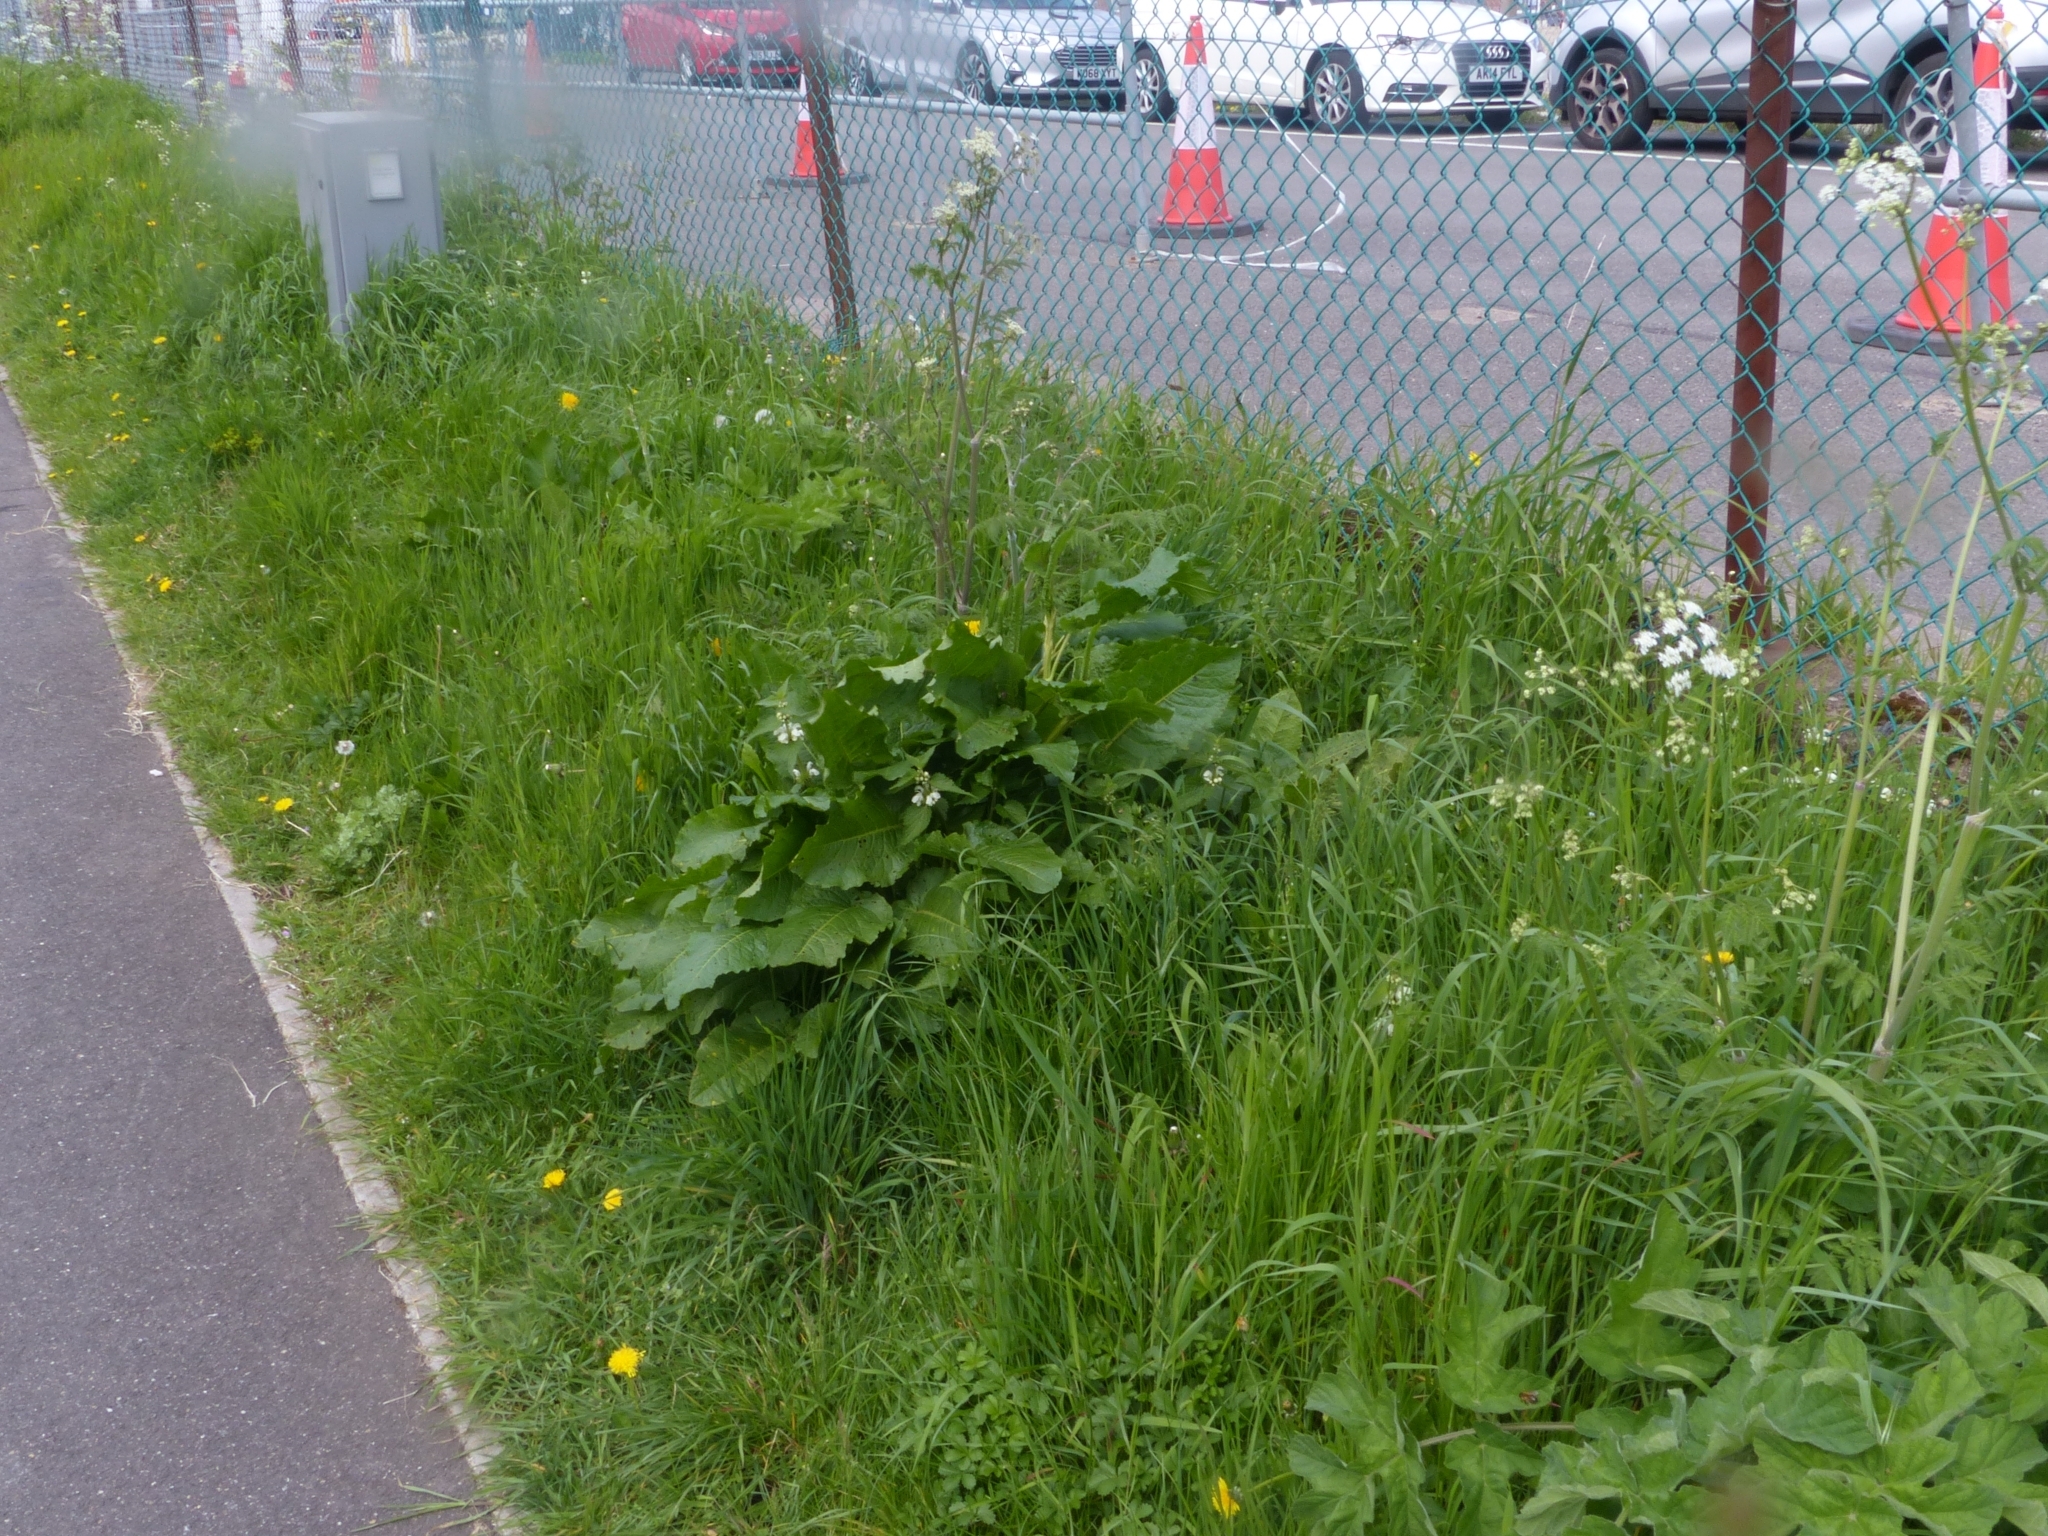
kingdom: Plantae
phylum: Tracheophyta
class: Magnoliopsida
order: Caryophyllales
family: Polygonaceae
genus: Rumex
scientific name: Rumex obtusifolius
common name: Bitter dock
